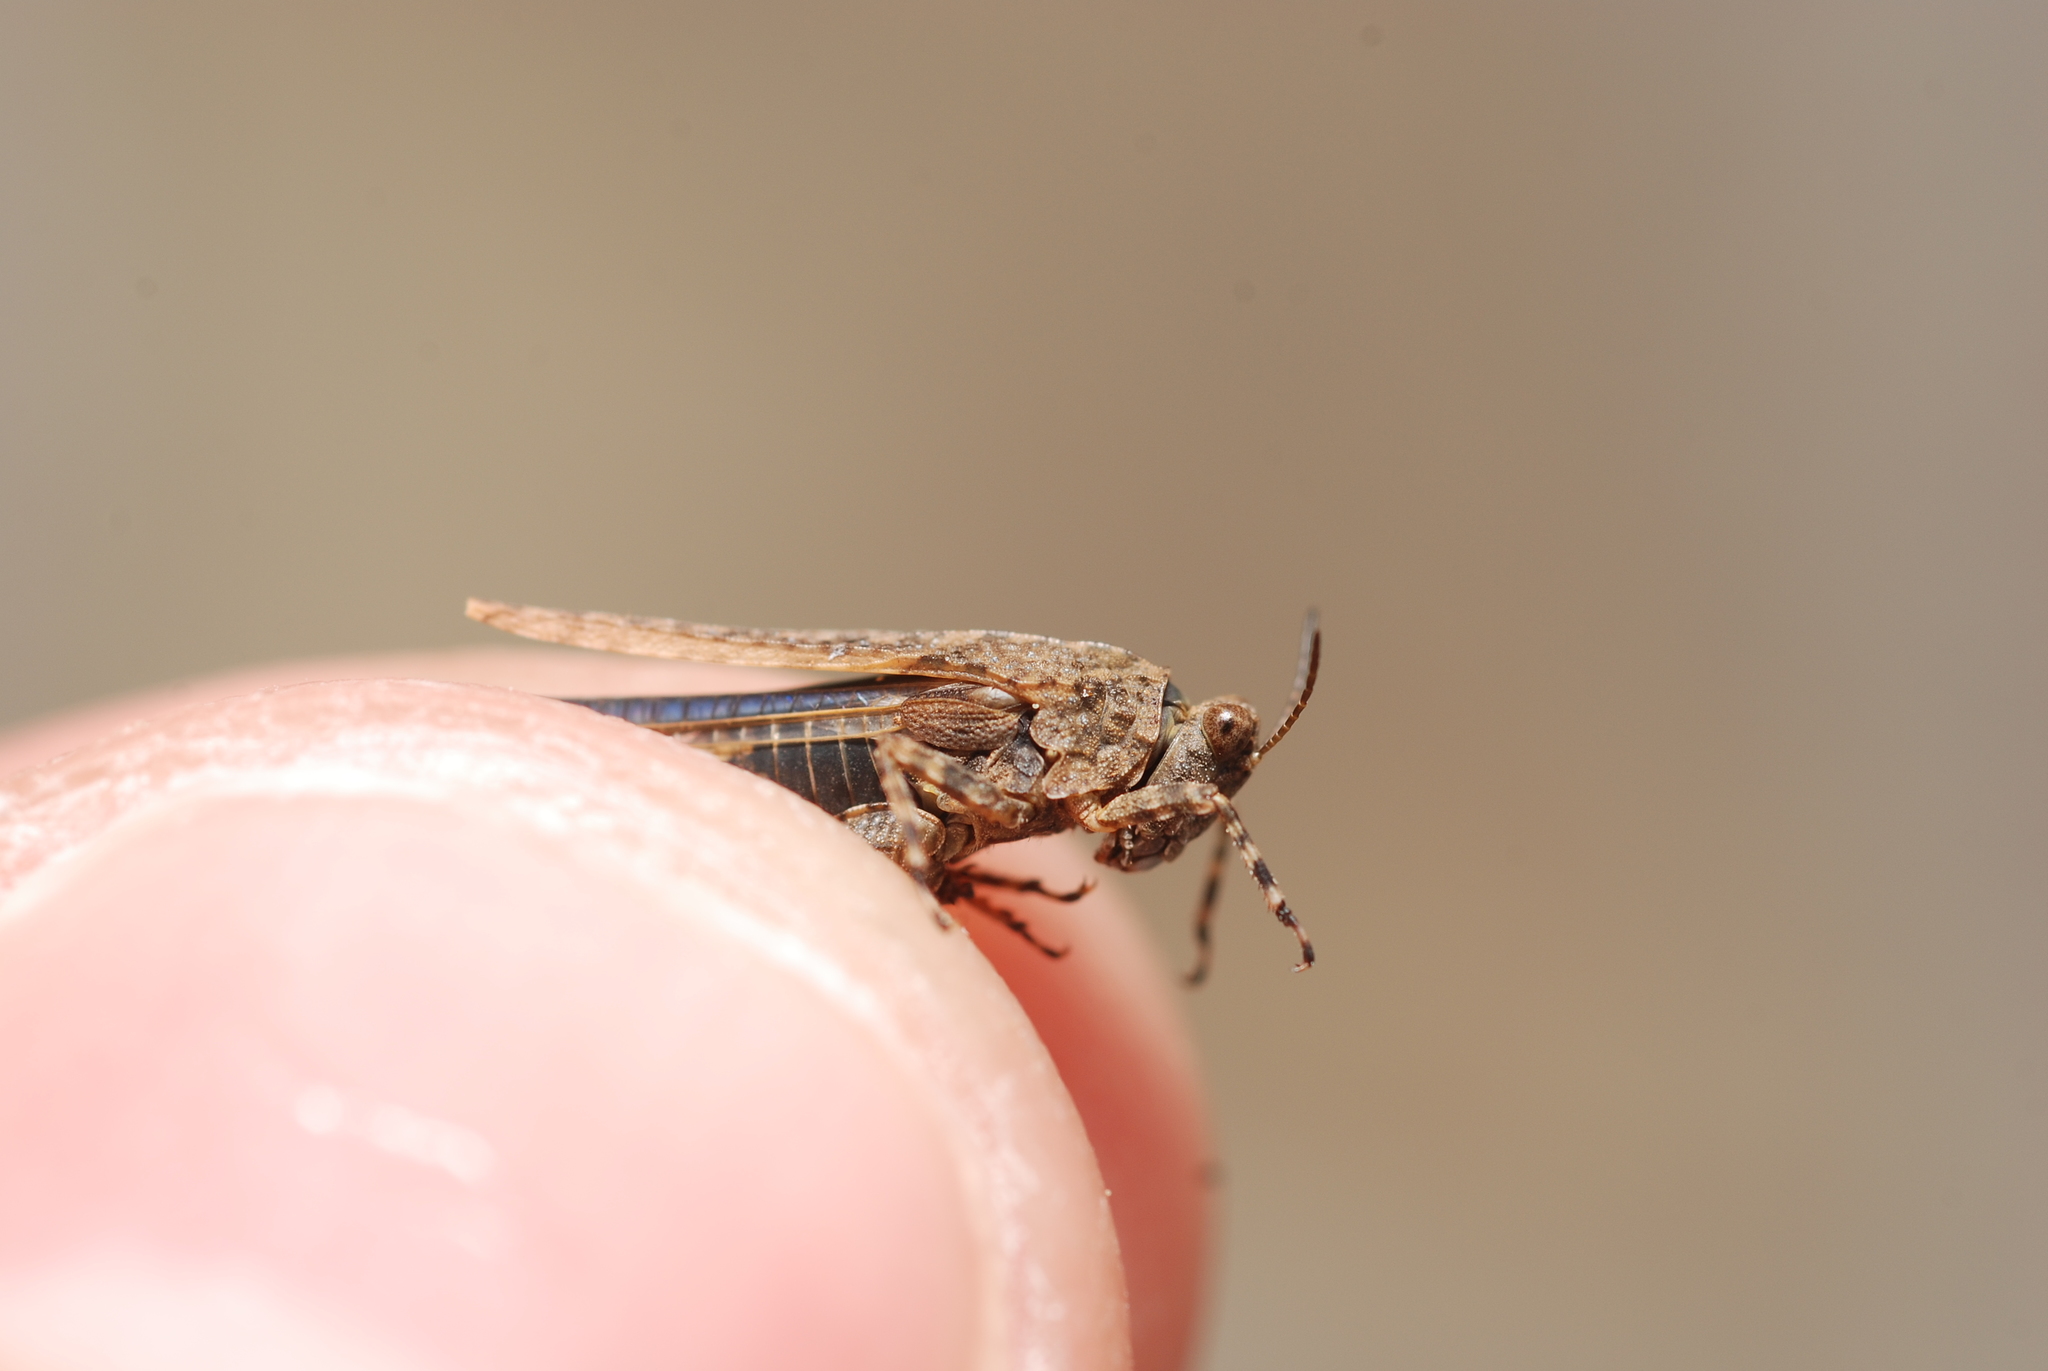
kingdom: Animalia
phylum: Arthropoda
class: Insecta
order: Orthoptera
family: Tetrigidae
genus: Paratettix
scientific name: Paratettix meridionalis
